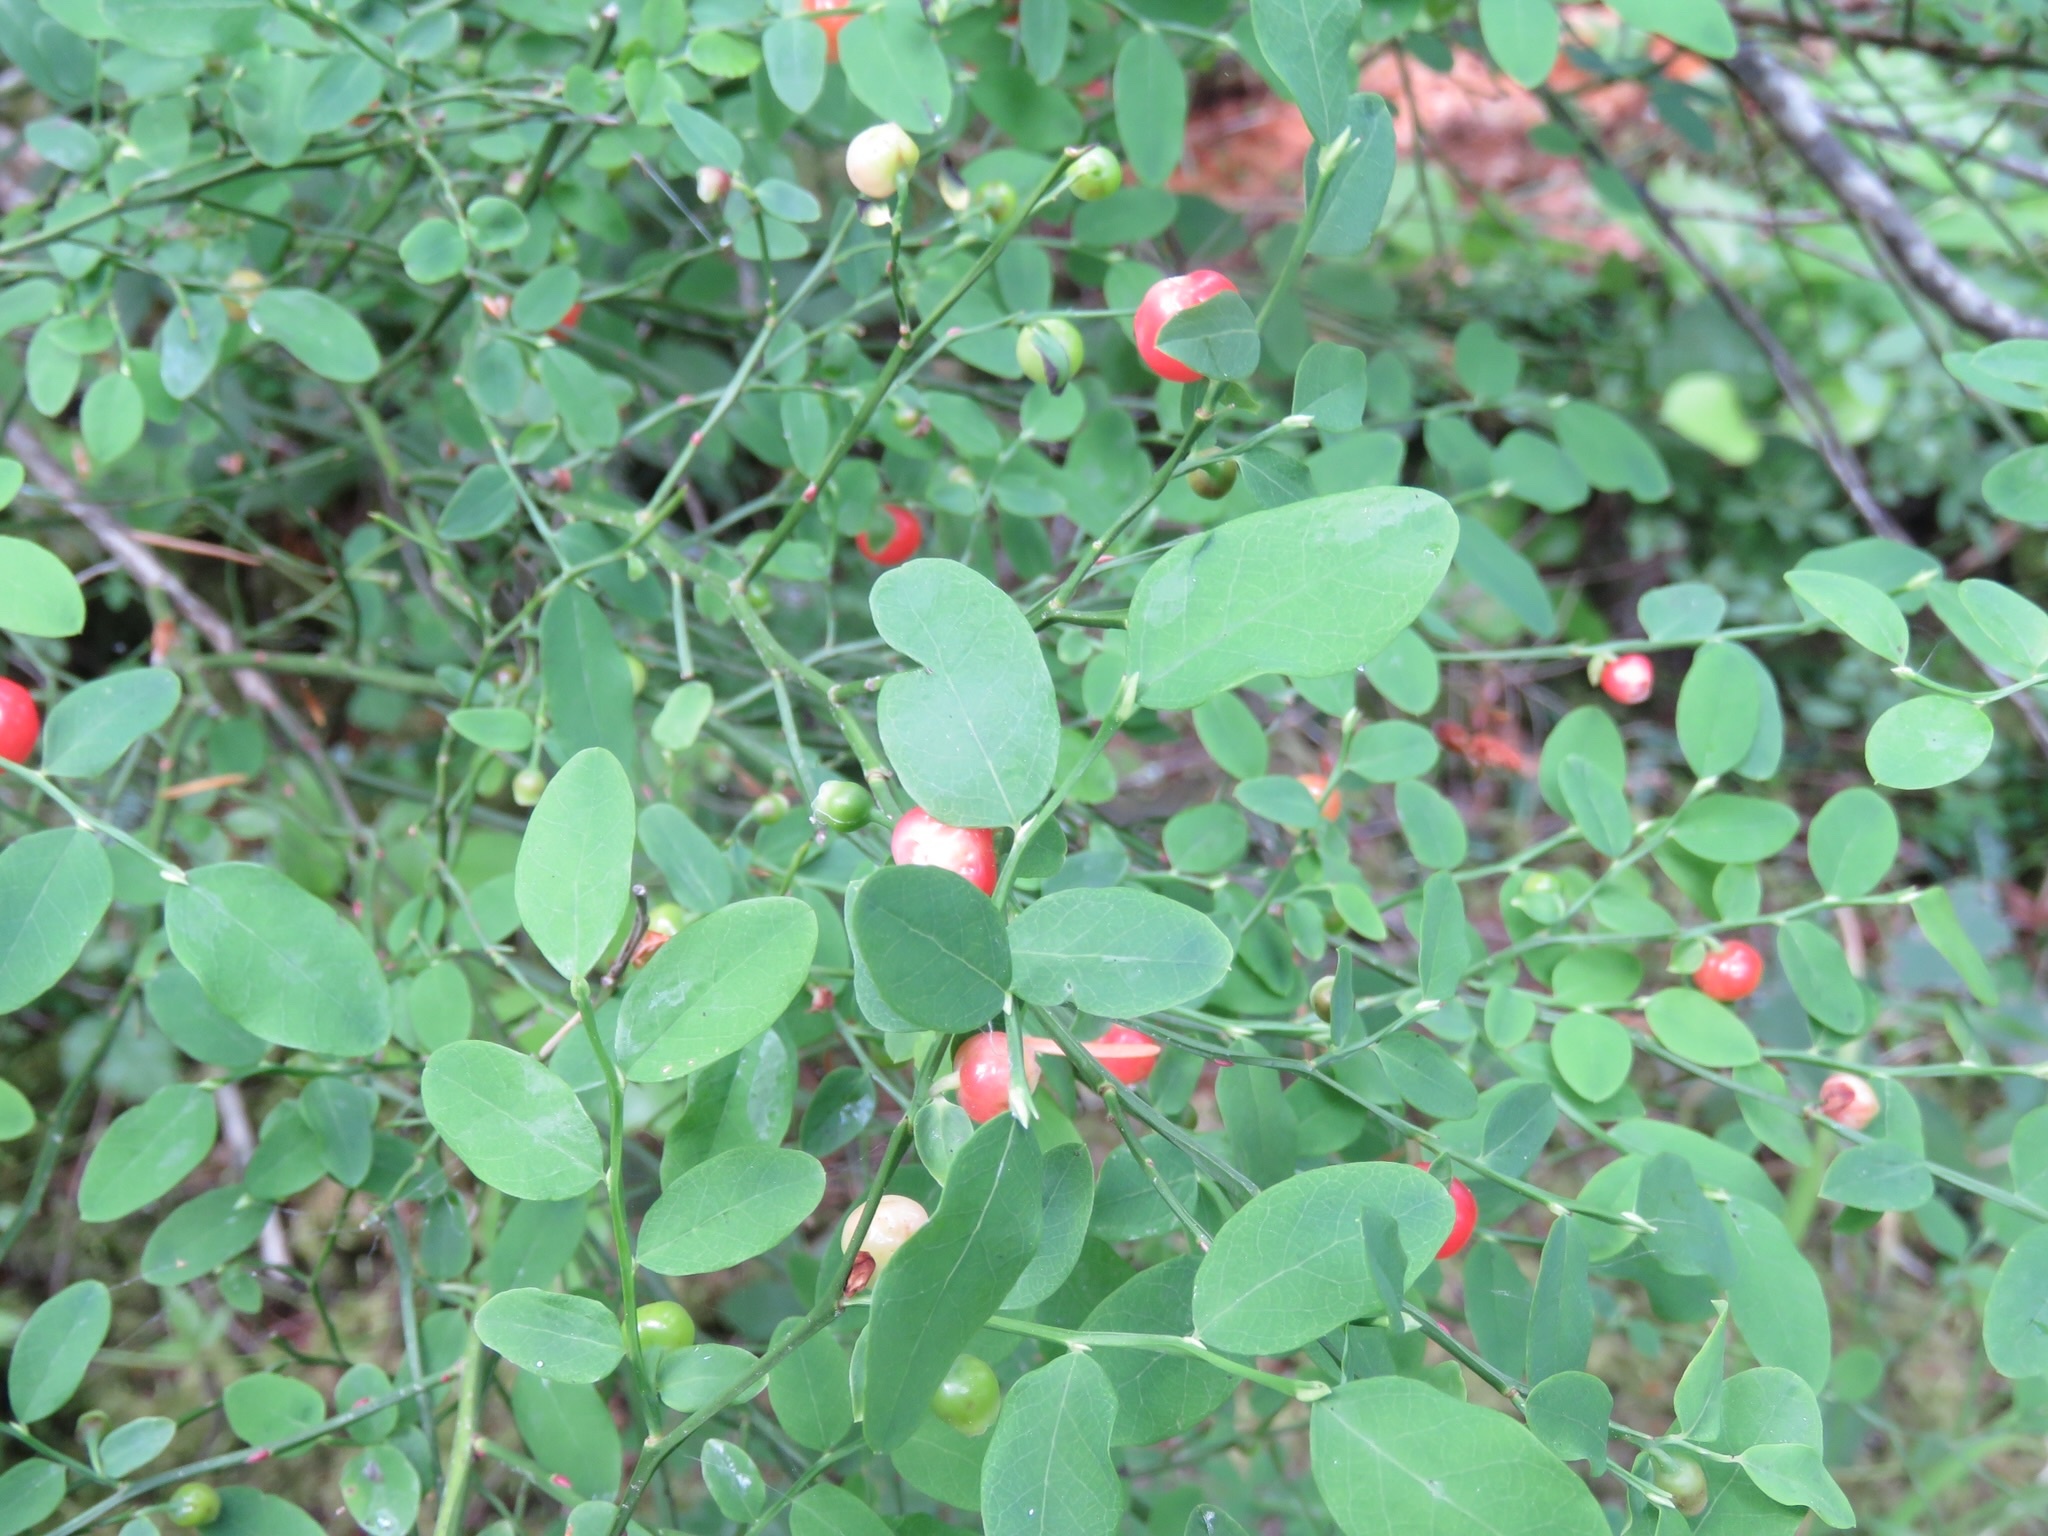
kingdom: Plantae
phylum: Tracheophyta
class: Magnoliopsida
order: Ericales
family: Ericaceae
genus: Vaccinium
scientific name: Vaccinium parvifolium
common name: Red-huckleberry
